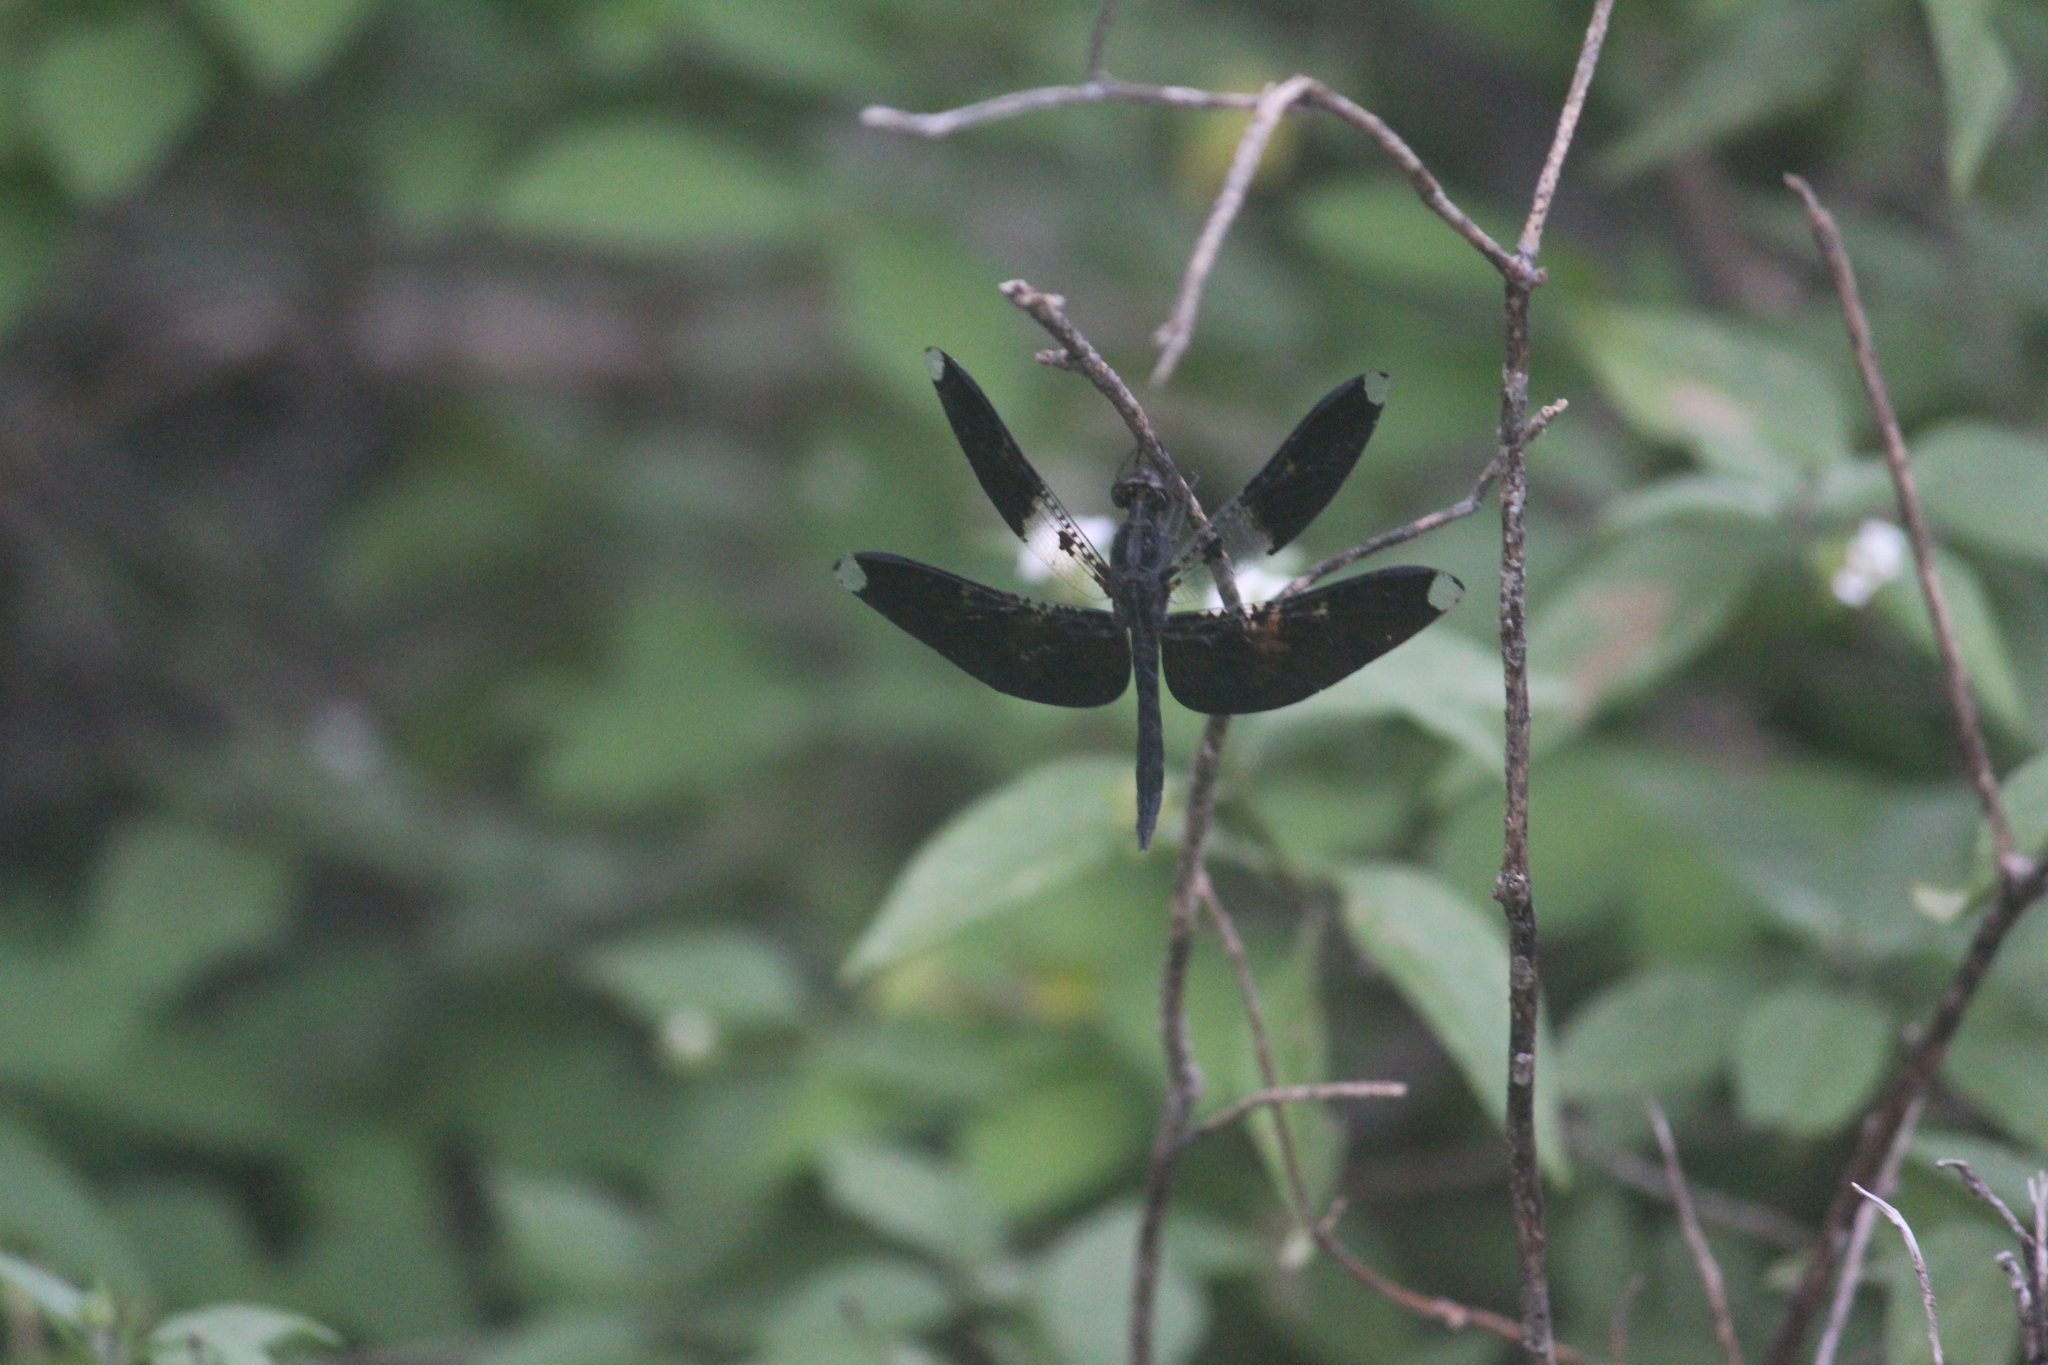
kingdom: Animalia
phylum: Arthropoda
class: Insecta
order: Odonata
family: Libellulidae
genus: Pseudoleon
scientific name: Pseudoleon superbus
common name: Filigree skimmer
